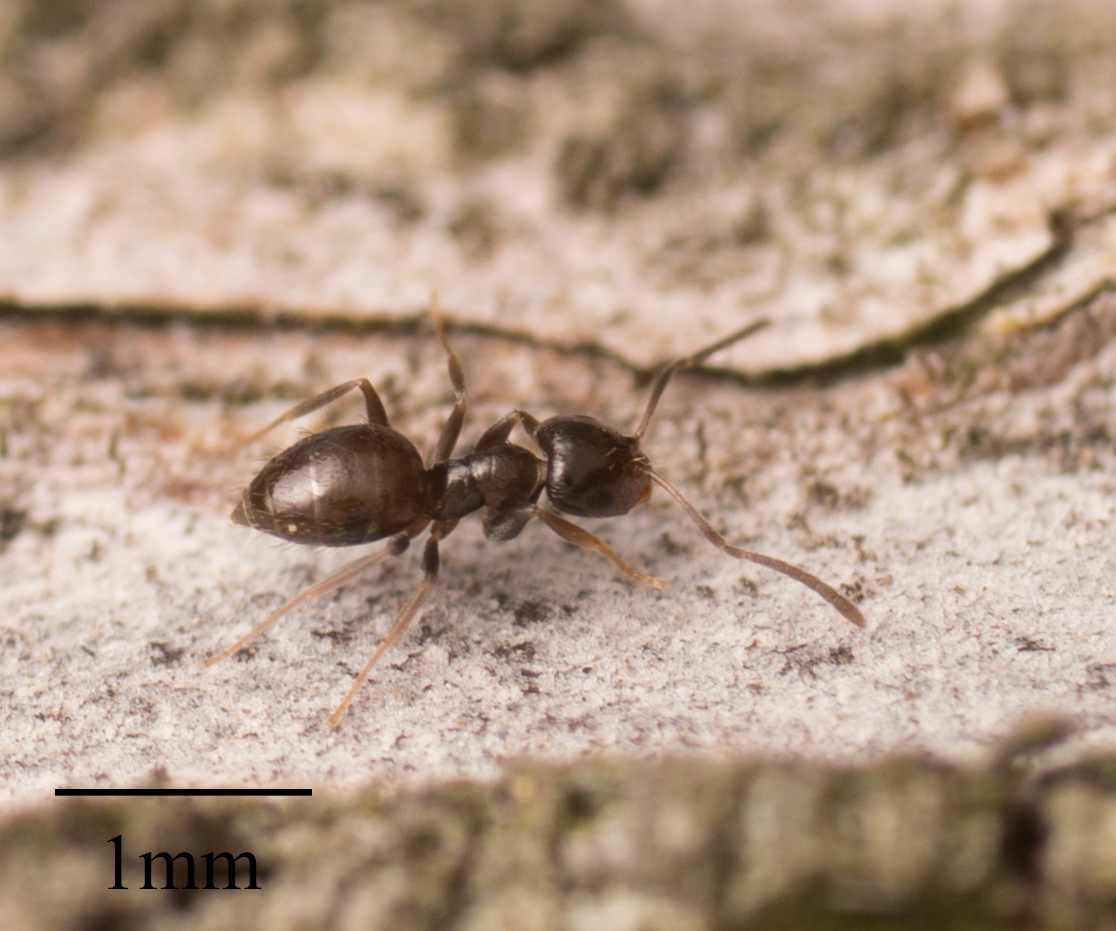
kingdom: Animalia
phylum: Arthropoda
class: Insecta
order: Hymenoptera
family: Formicidae
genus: Brachymyrmex
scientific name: Brachymyrmex patagonicus
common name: Dark rover ant
